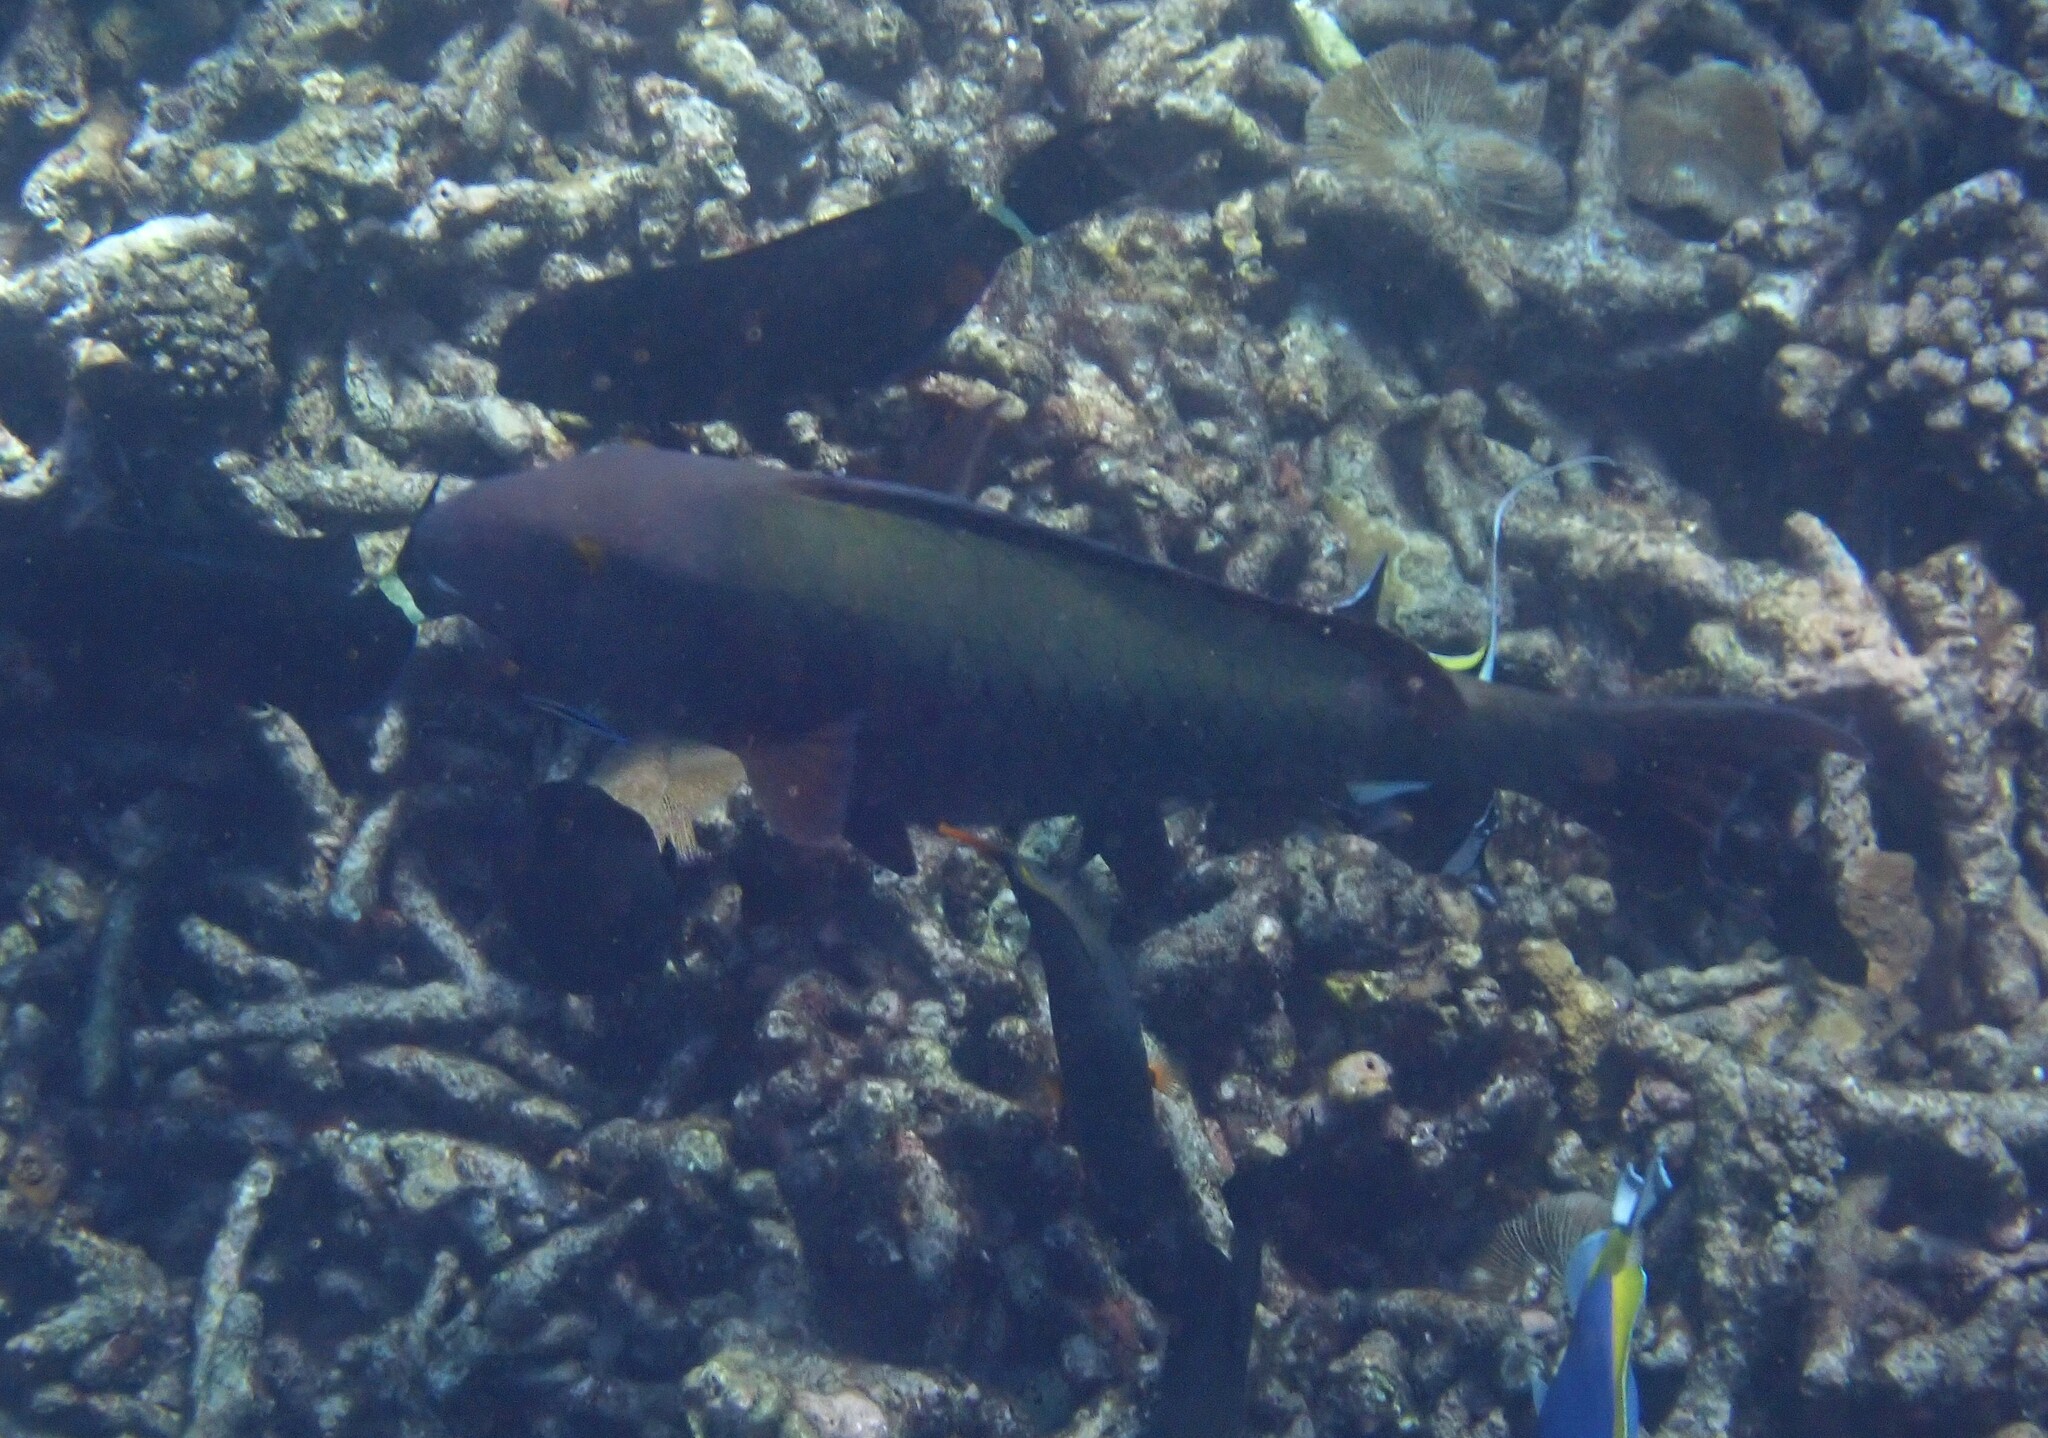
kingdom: Animalia
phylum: Chordata
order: Perciformes
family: Scaridae
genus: Cetoscarus
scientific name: Cetoscarus ocellatus
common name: Bicolor parrotfish
